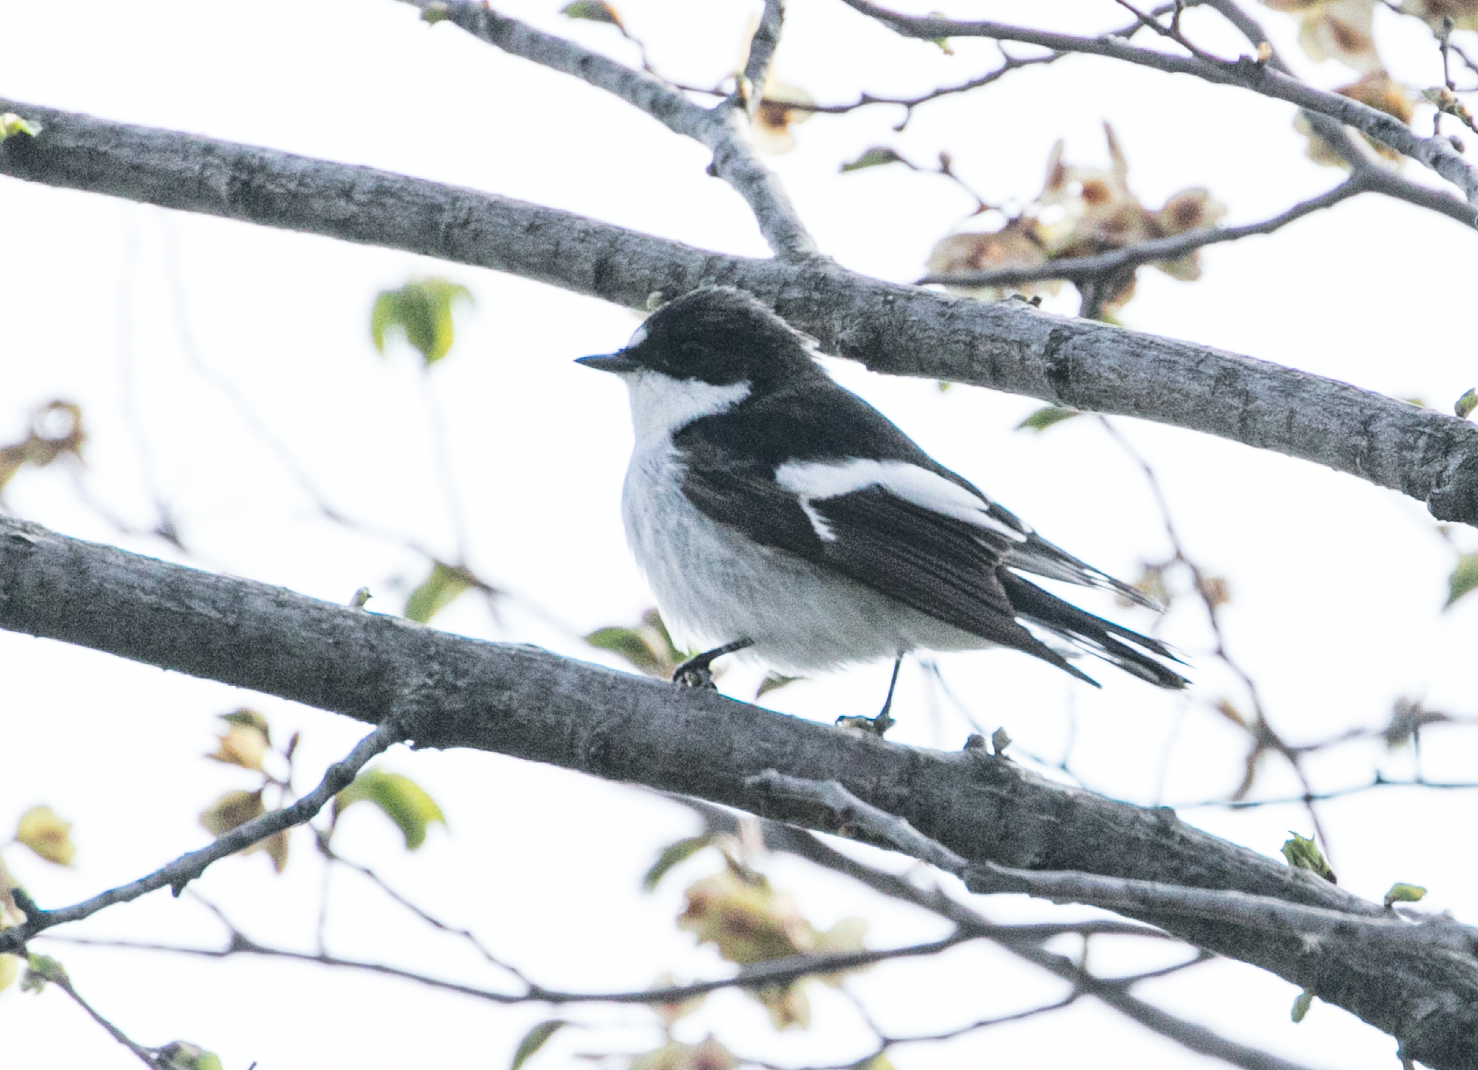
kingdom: Animalia
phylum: Chordata
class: Aves
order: Passeriformes
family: Muscicapidae
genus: Ficedula
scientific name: Ficedula hypoleuca
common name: European pied flycatcher
